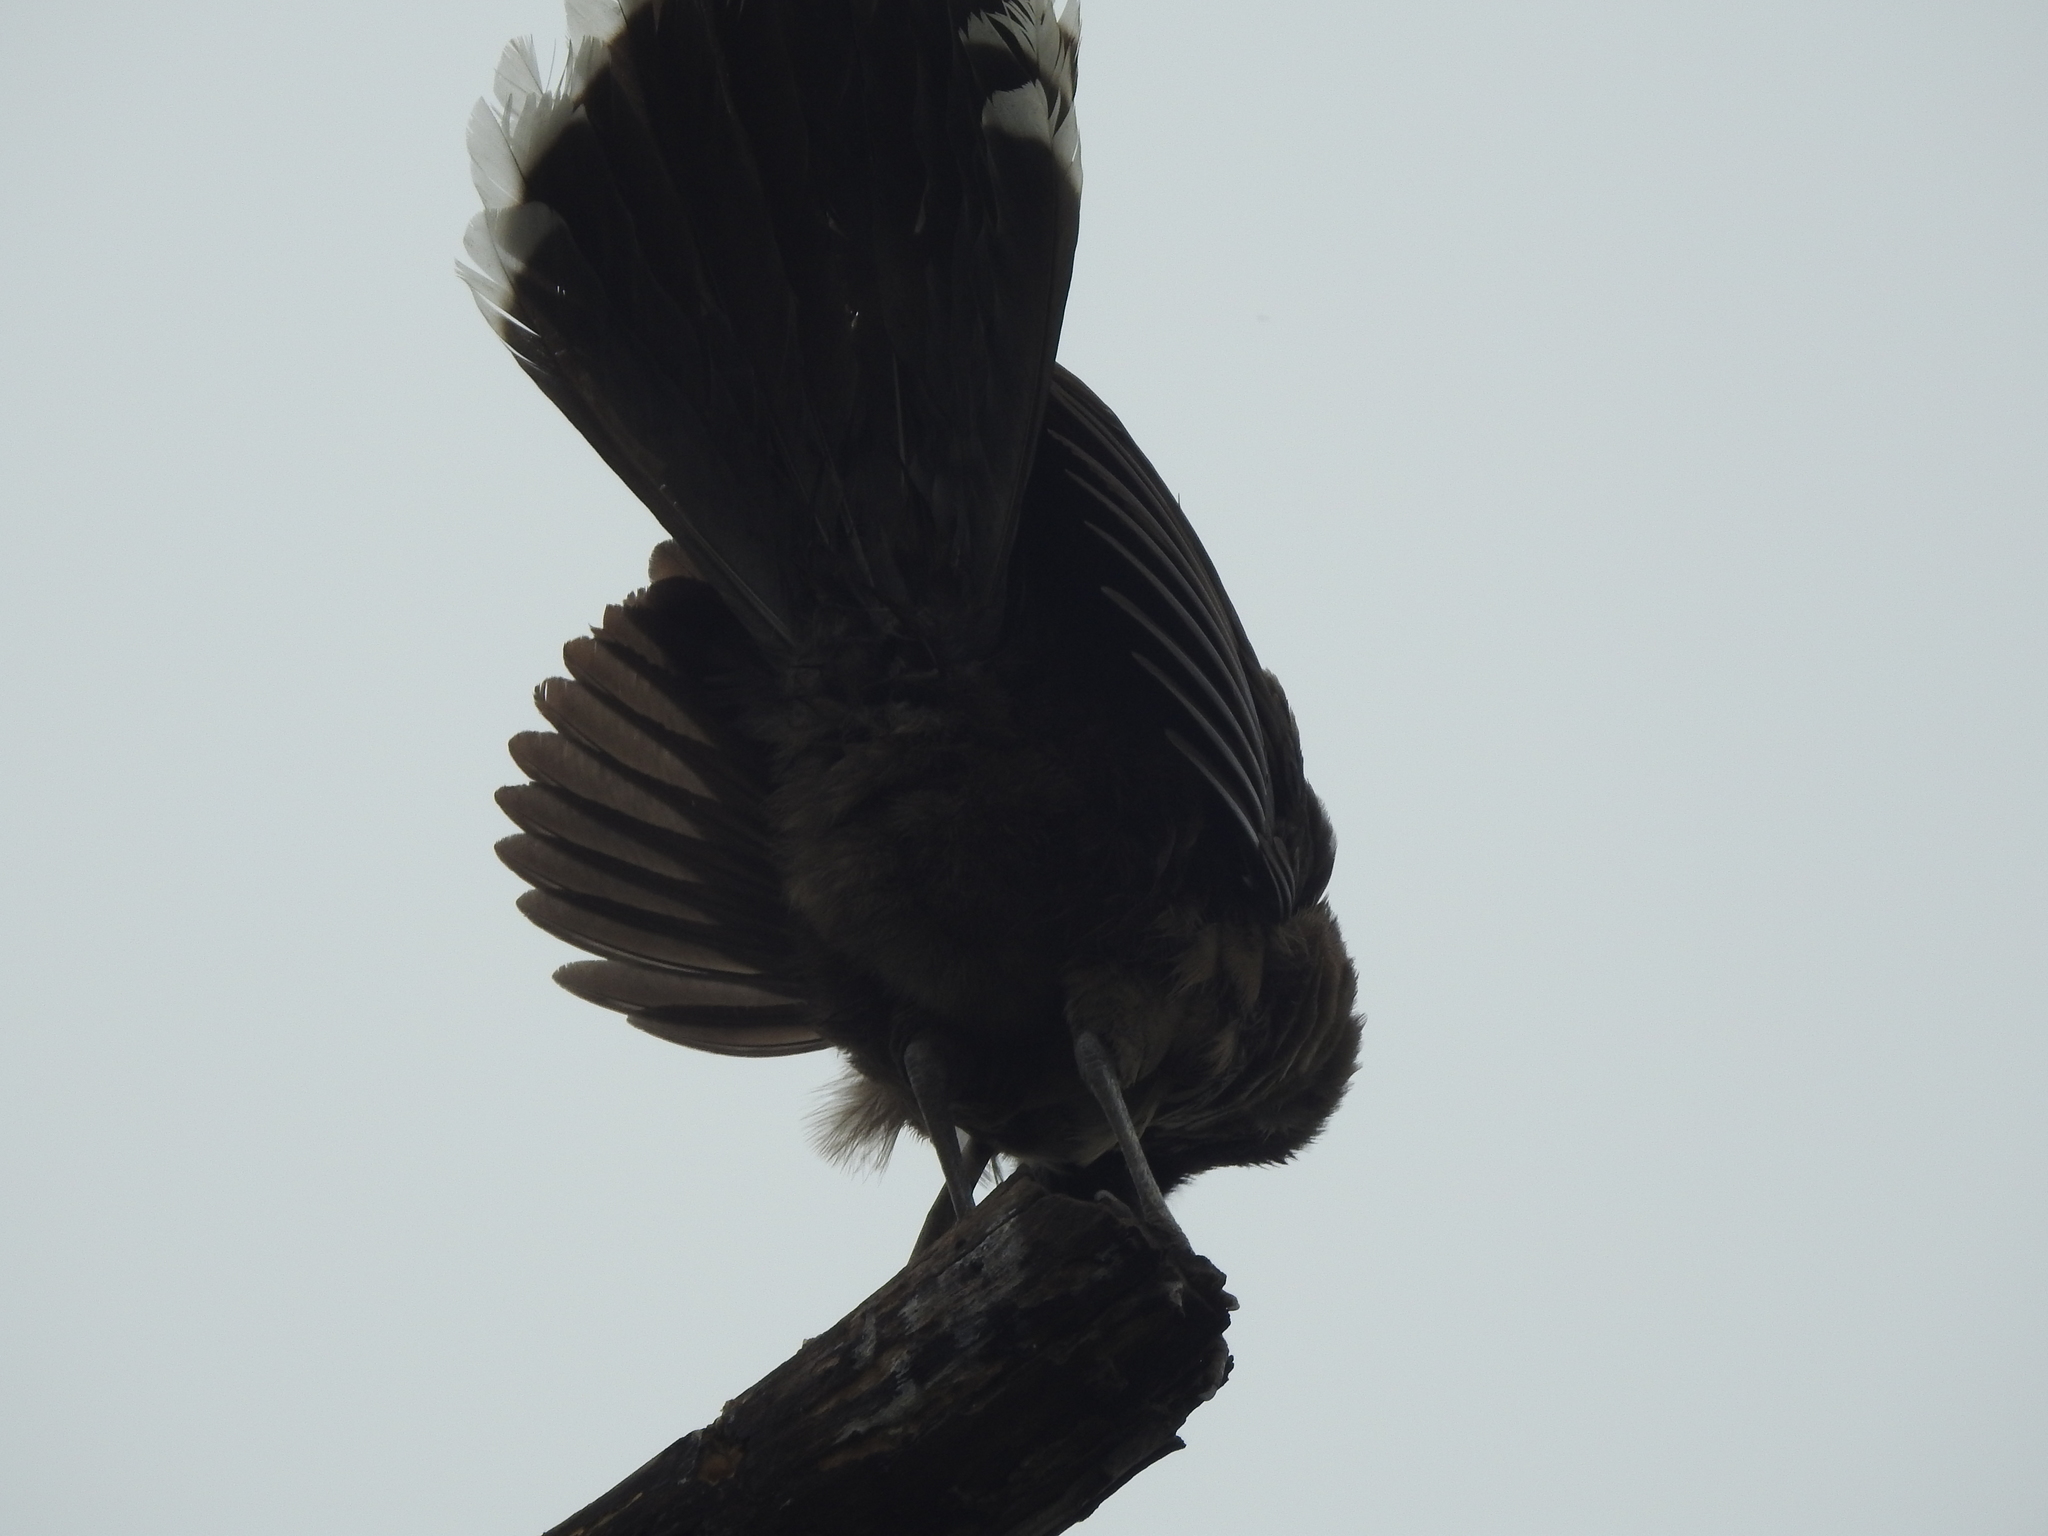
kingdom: Animalia
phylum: Chordata
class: Aves
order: Galliformes
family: Cracidae
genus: Ortalis
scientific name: Ortalis vetula
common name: Plain chachalaca
